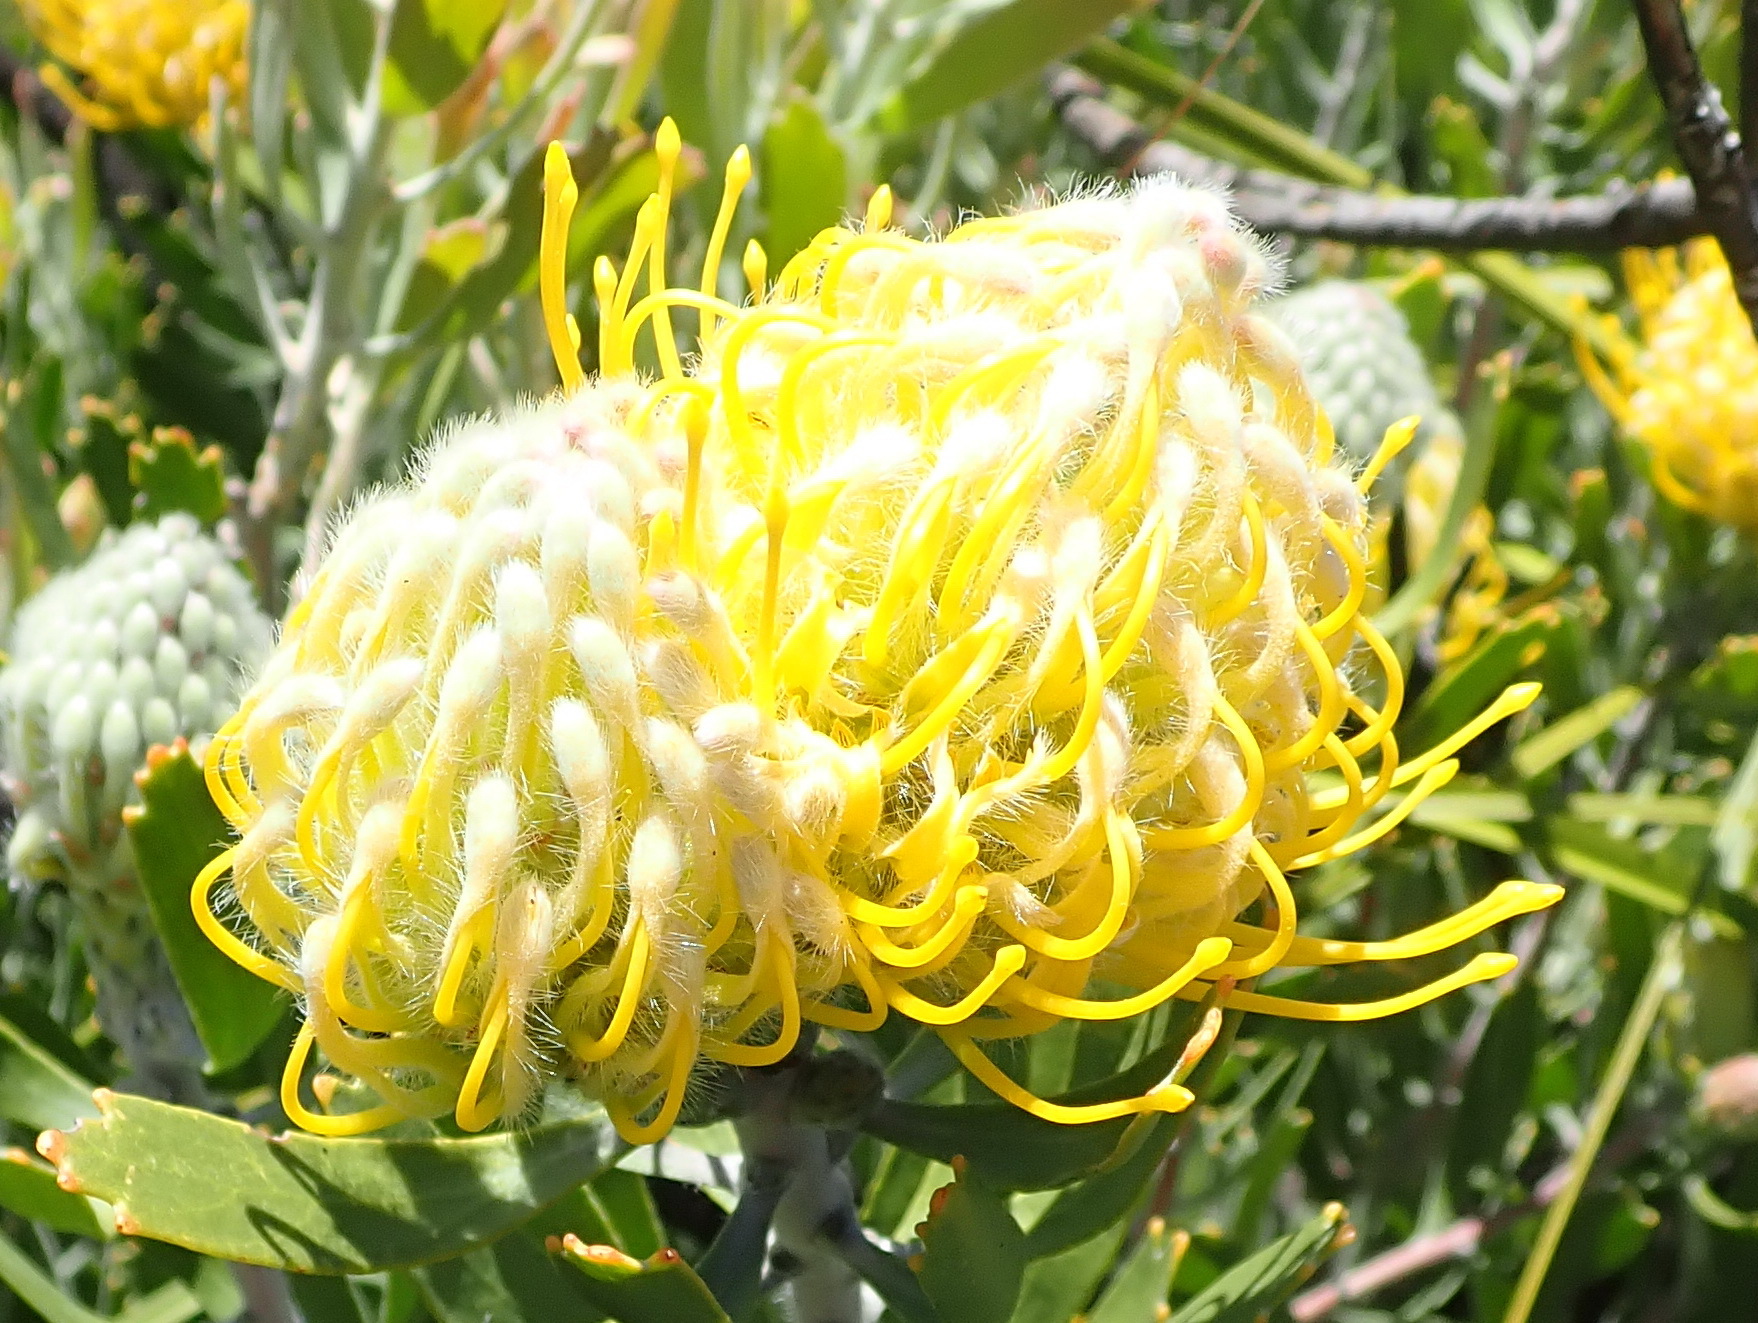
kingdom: Plantae
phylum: Tracheophyta
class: Magnoliopsida
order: Proteales
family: Proteaceae
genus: Leucospermum
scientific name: Leucospermum cuneiforme
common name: Common pincushion
